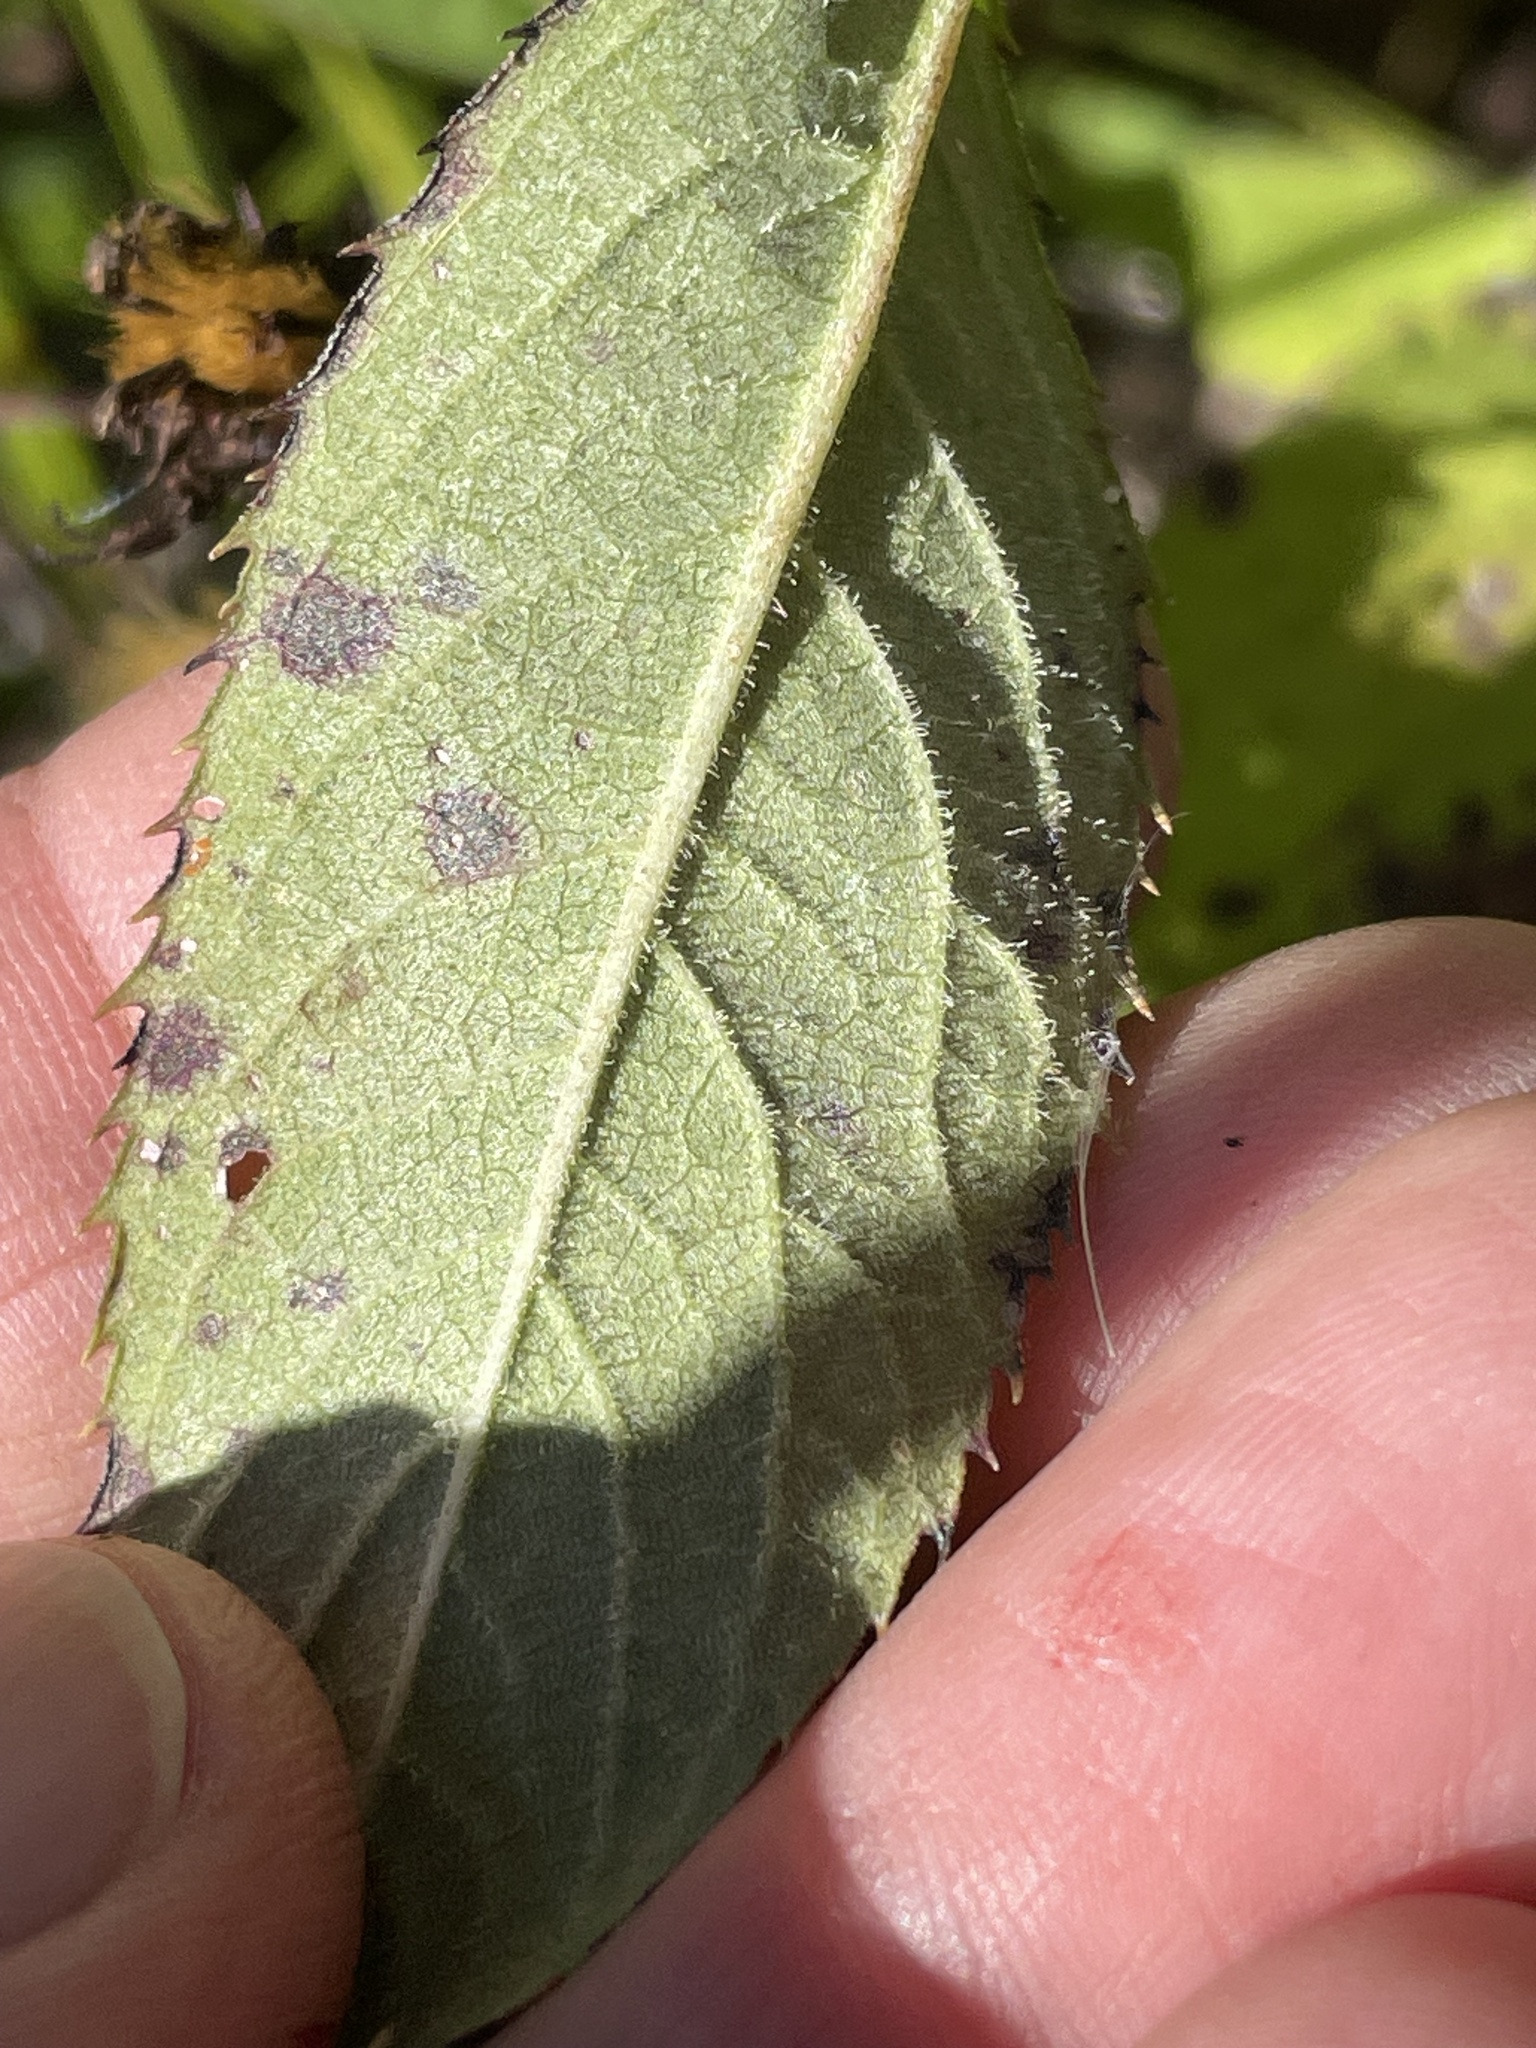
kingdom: Plantae
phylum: Tracheophyta
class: Magnoliopsida
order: Asterales
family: Asteraceae
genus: Vernonia
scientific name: Vernonia glauca
